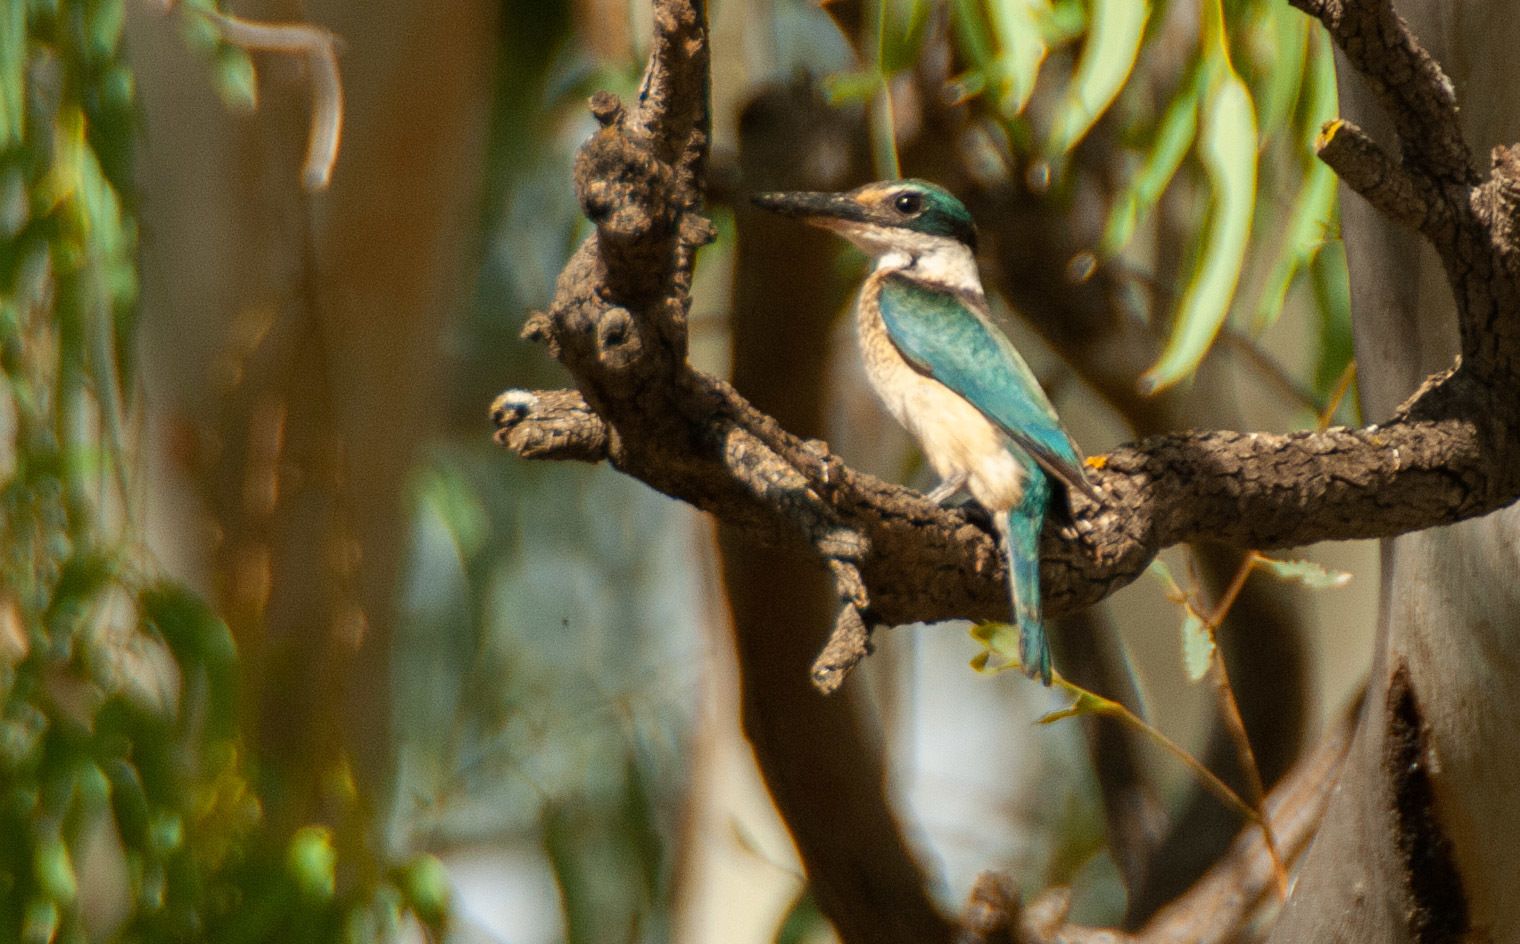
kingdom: Animalia
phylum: Chordata
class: Aves
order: Coraciiformes
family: Alcedinidae
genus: Todiramphus
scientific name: Todiramphus sanctus
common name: Sacred kingfisher
